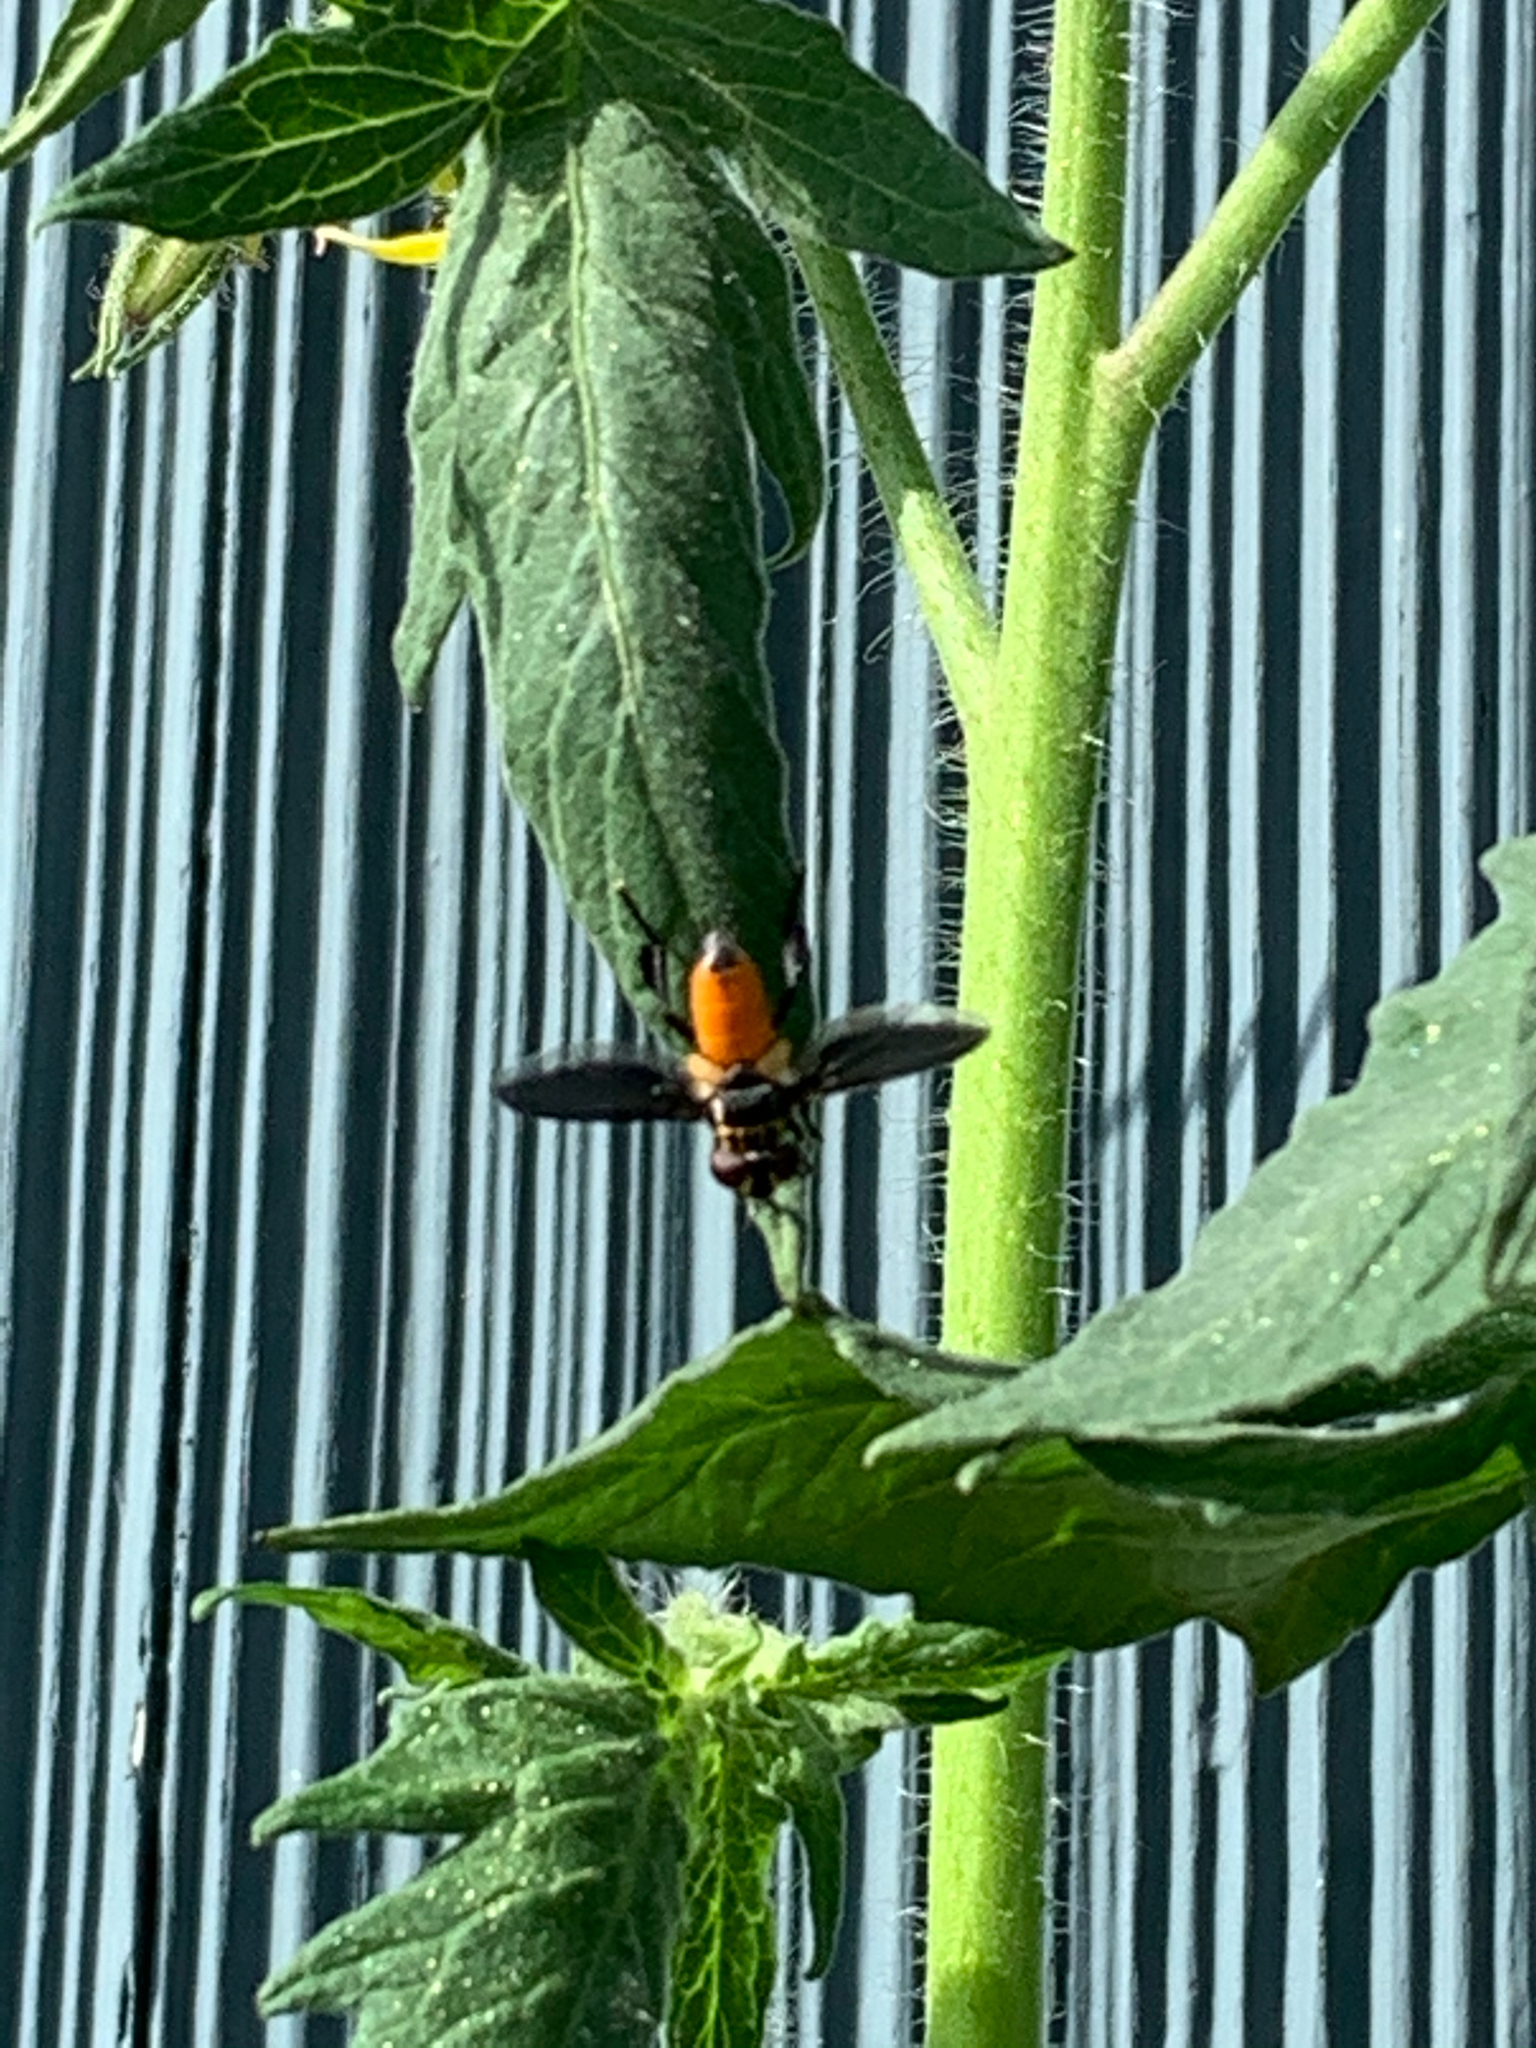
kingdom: Animalia
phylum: Arthropoda
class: Insecta
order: Diptera
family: Tachinidae
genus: Trichopoda
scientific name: Trichopoda pennipes
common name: Tachinid fly
